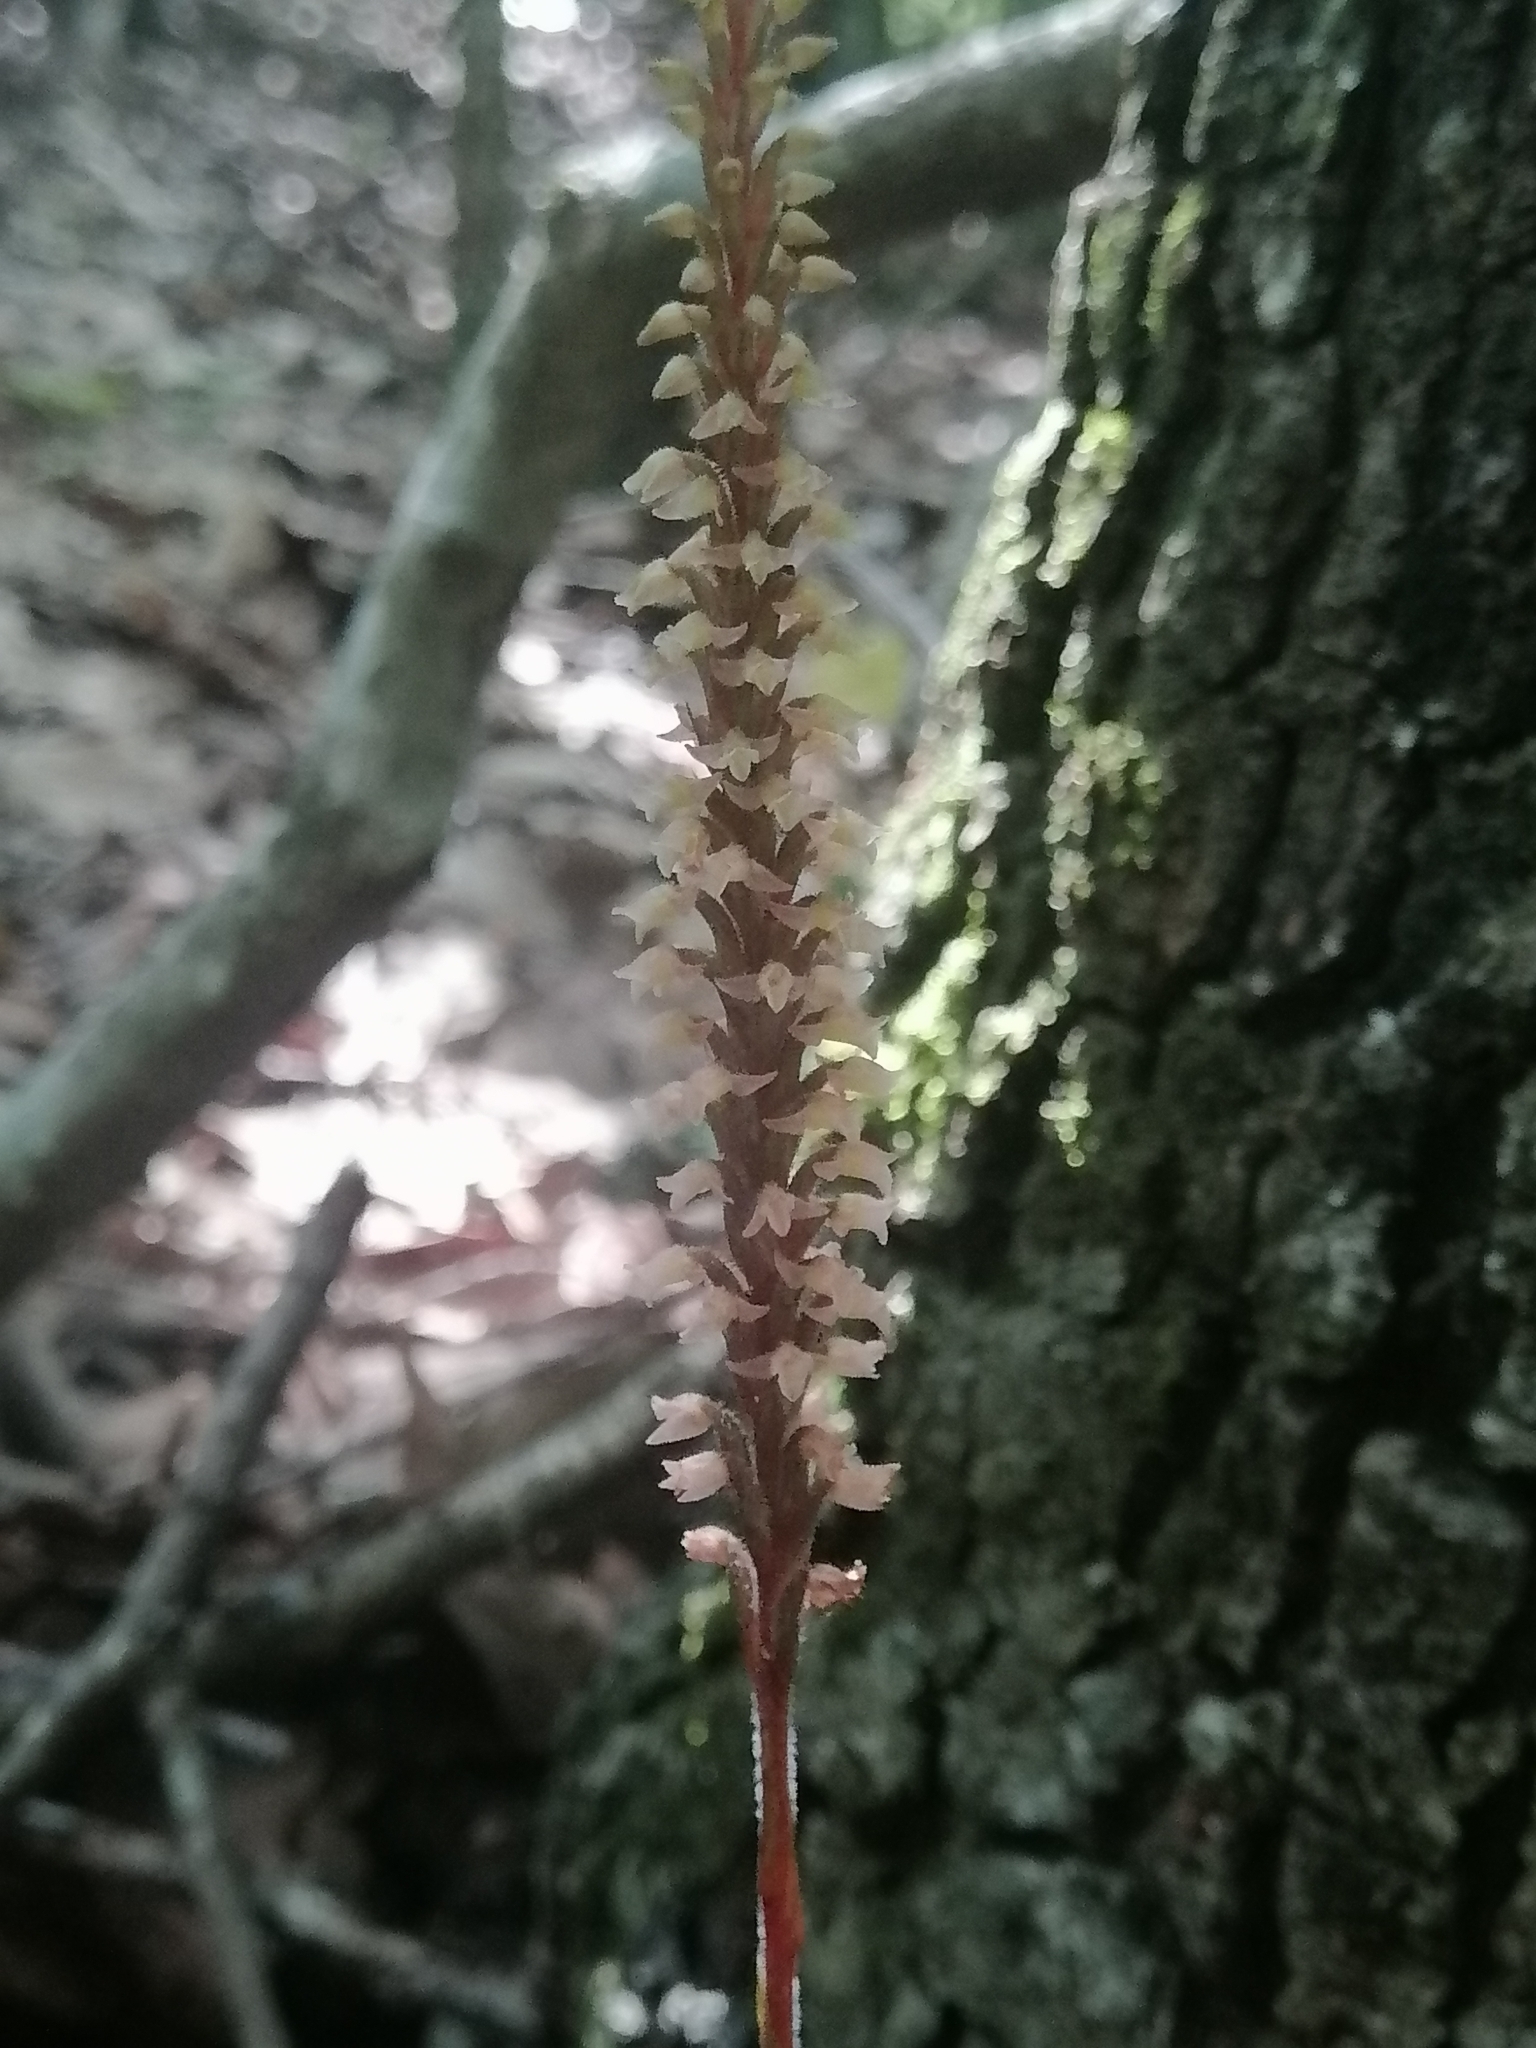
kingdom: Plantae
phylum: Tracheophyta
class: Liliopsida
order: Asparagales
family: Orchidaceae
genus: Goodyera
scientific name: Goodyera striata
